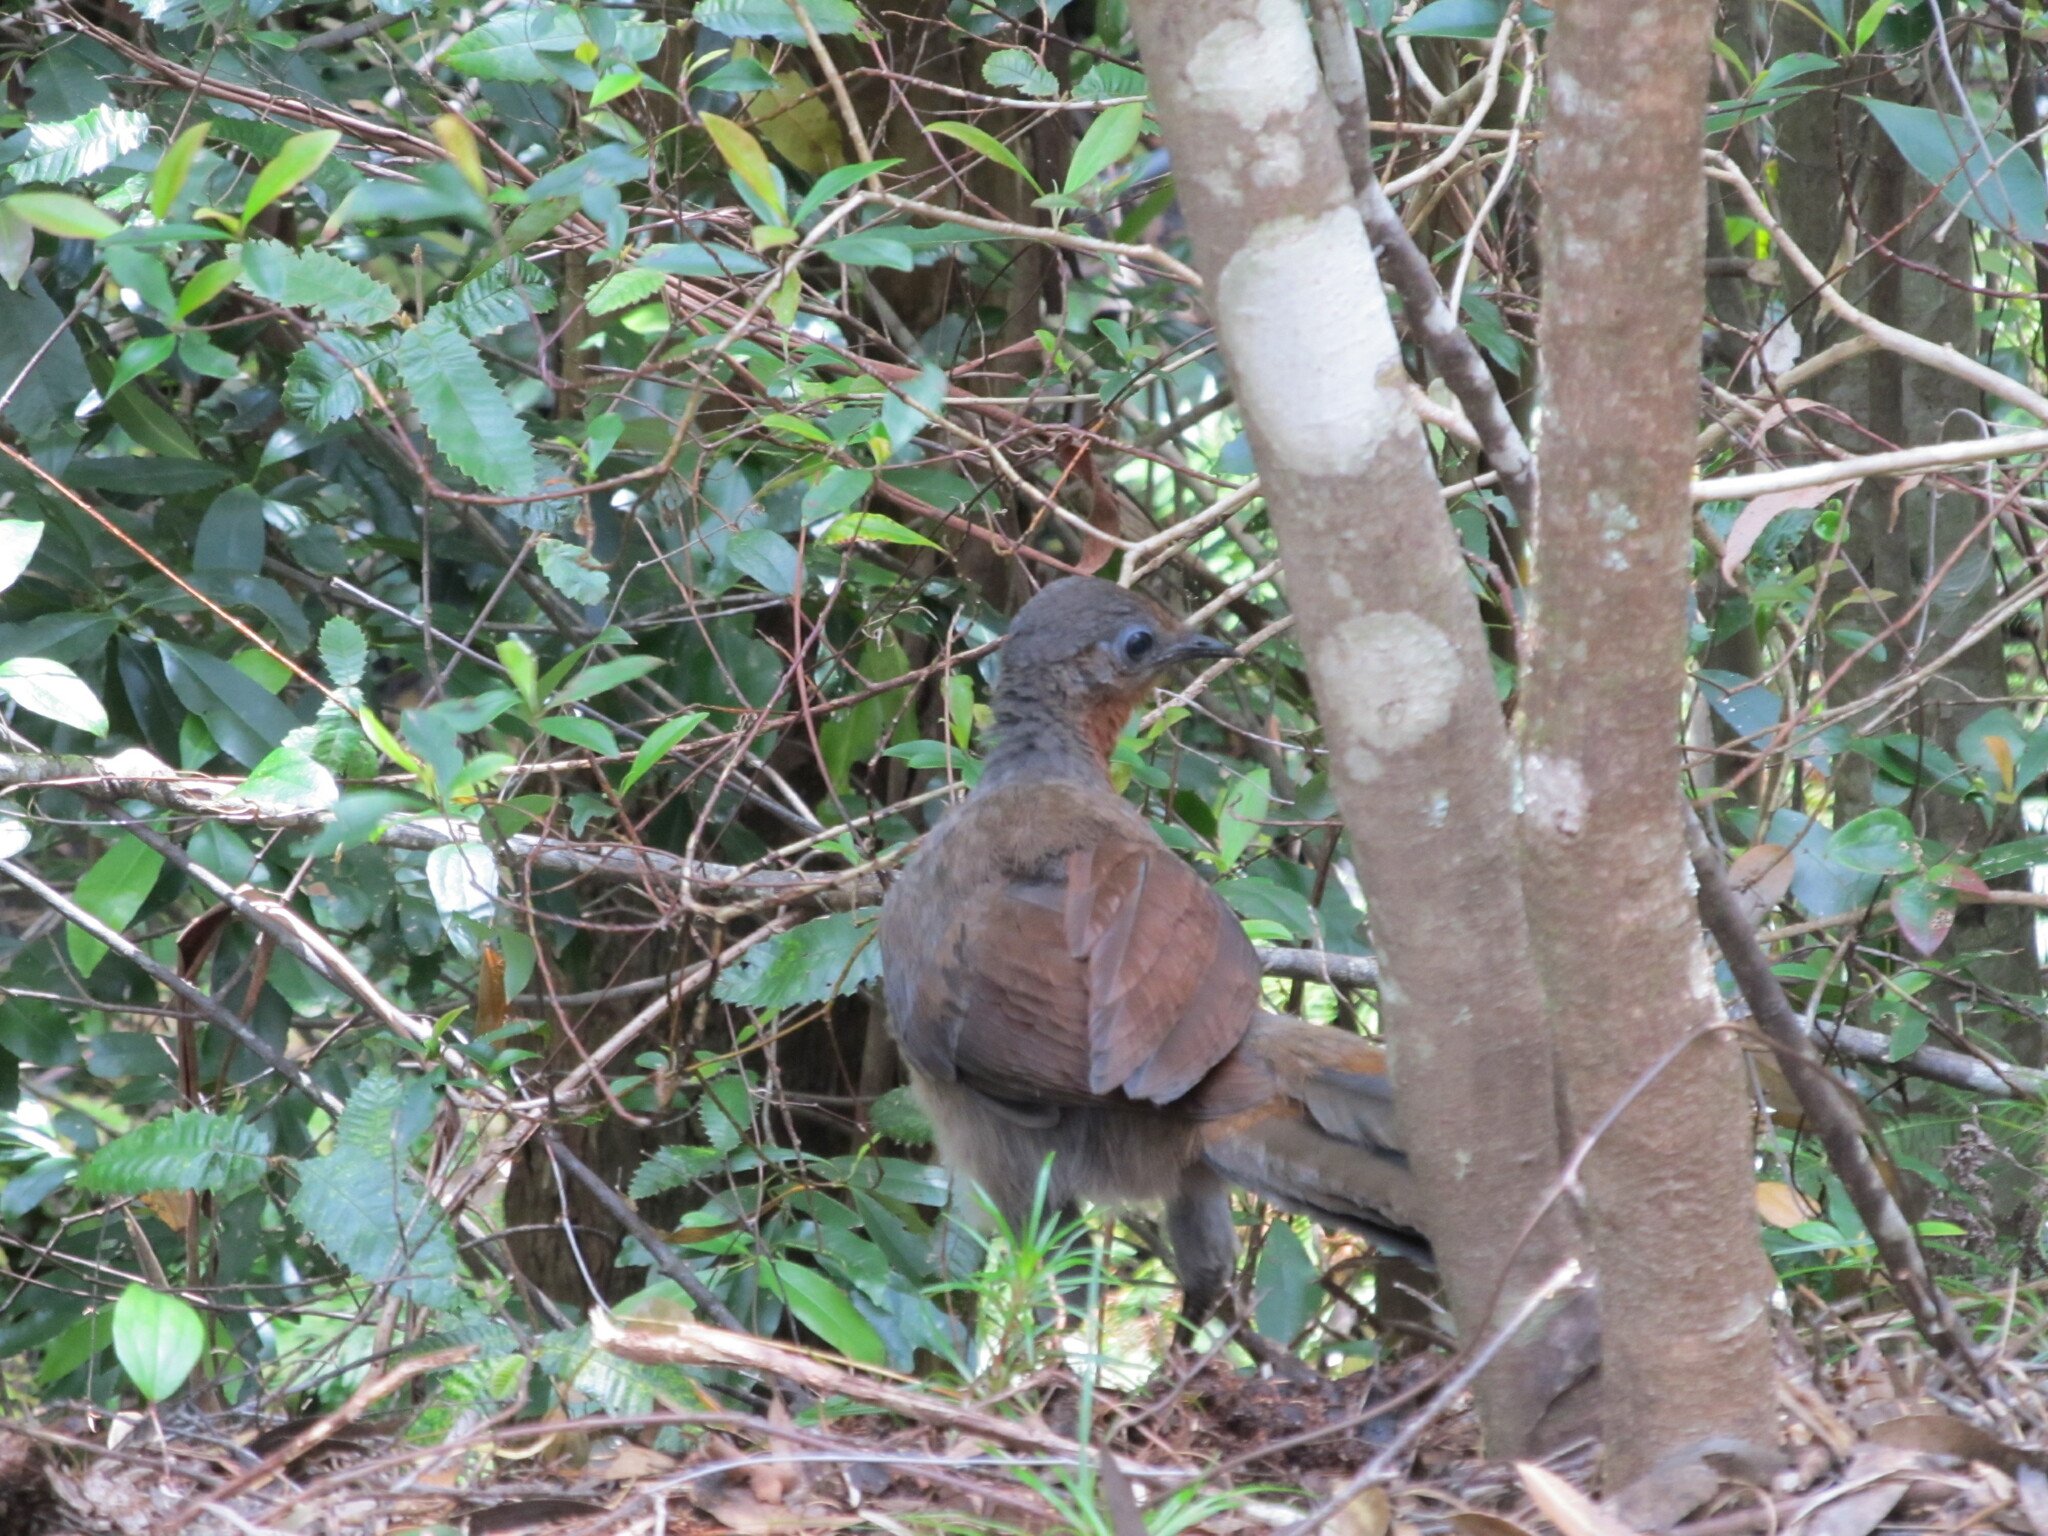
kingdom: Animalia
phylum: Chordata
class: Aves
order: Passeriformes
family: Menuridae
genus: Menura
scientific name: Menura novaehollandiae
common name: Superb lyrebird
